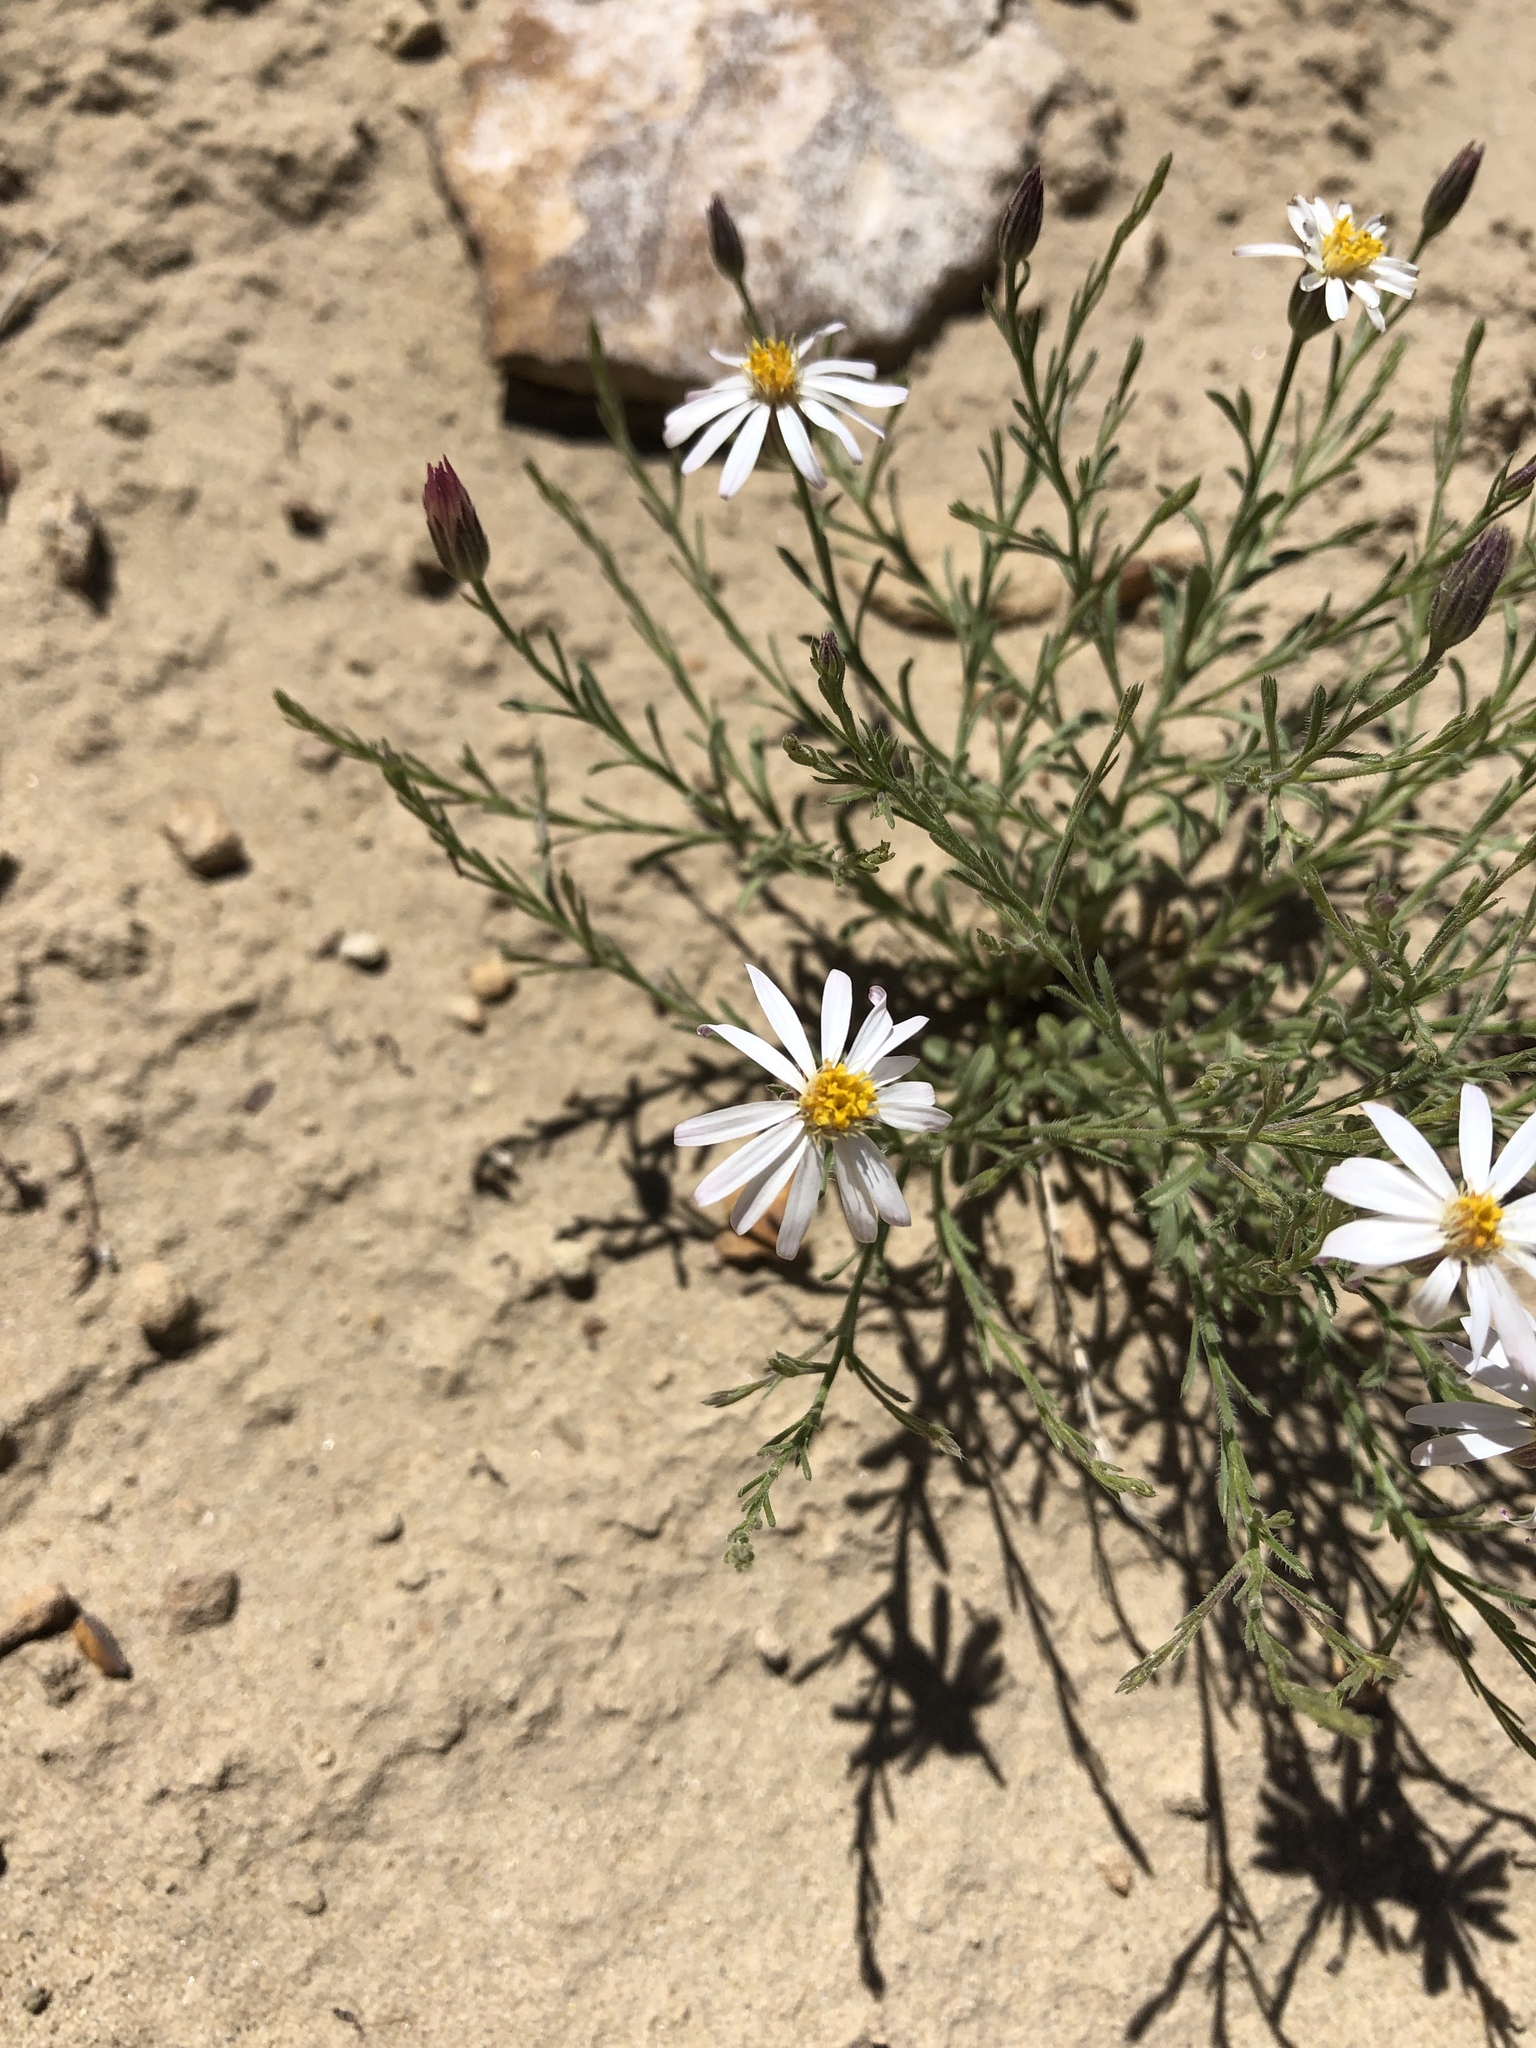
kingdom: Plantae
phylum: Tracheophyta
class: Magnoliopsida
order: Asterales
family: Asteraceae
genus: Chaetopappa
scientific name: Chaetopappa ericoides
